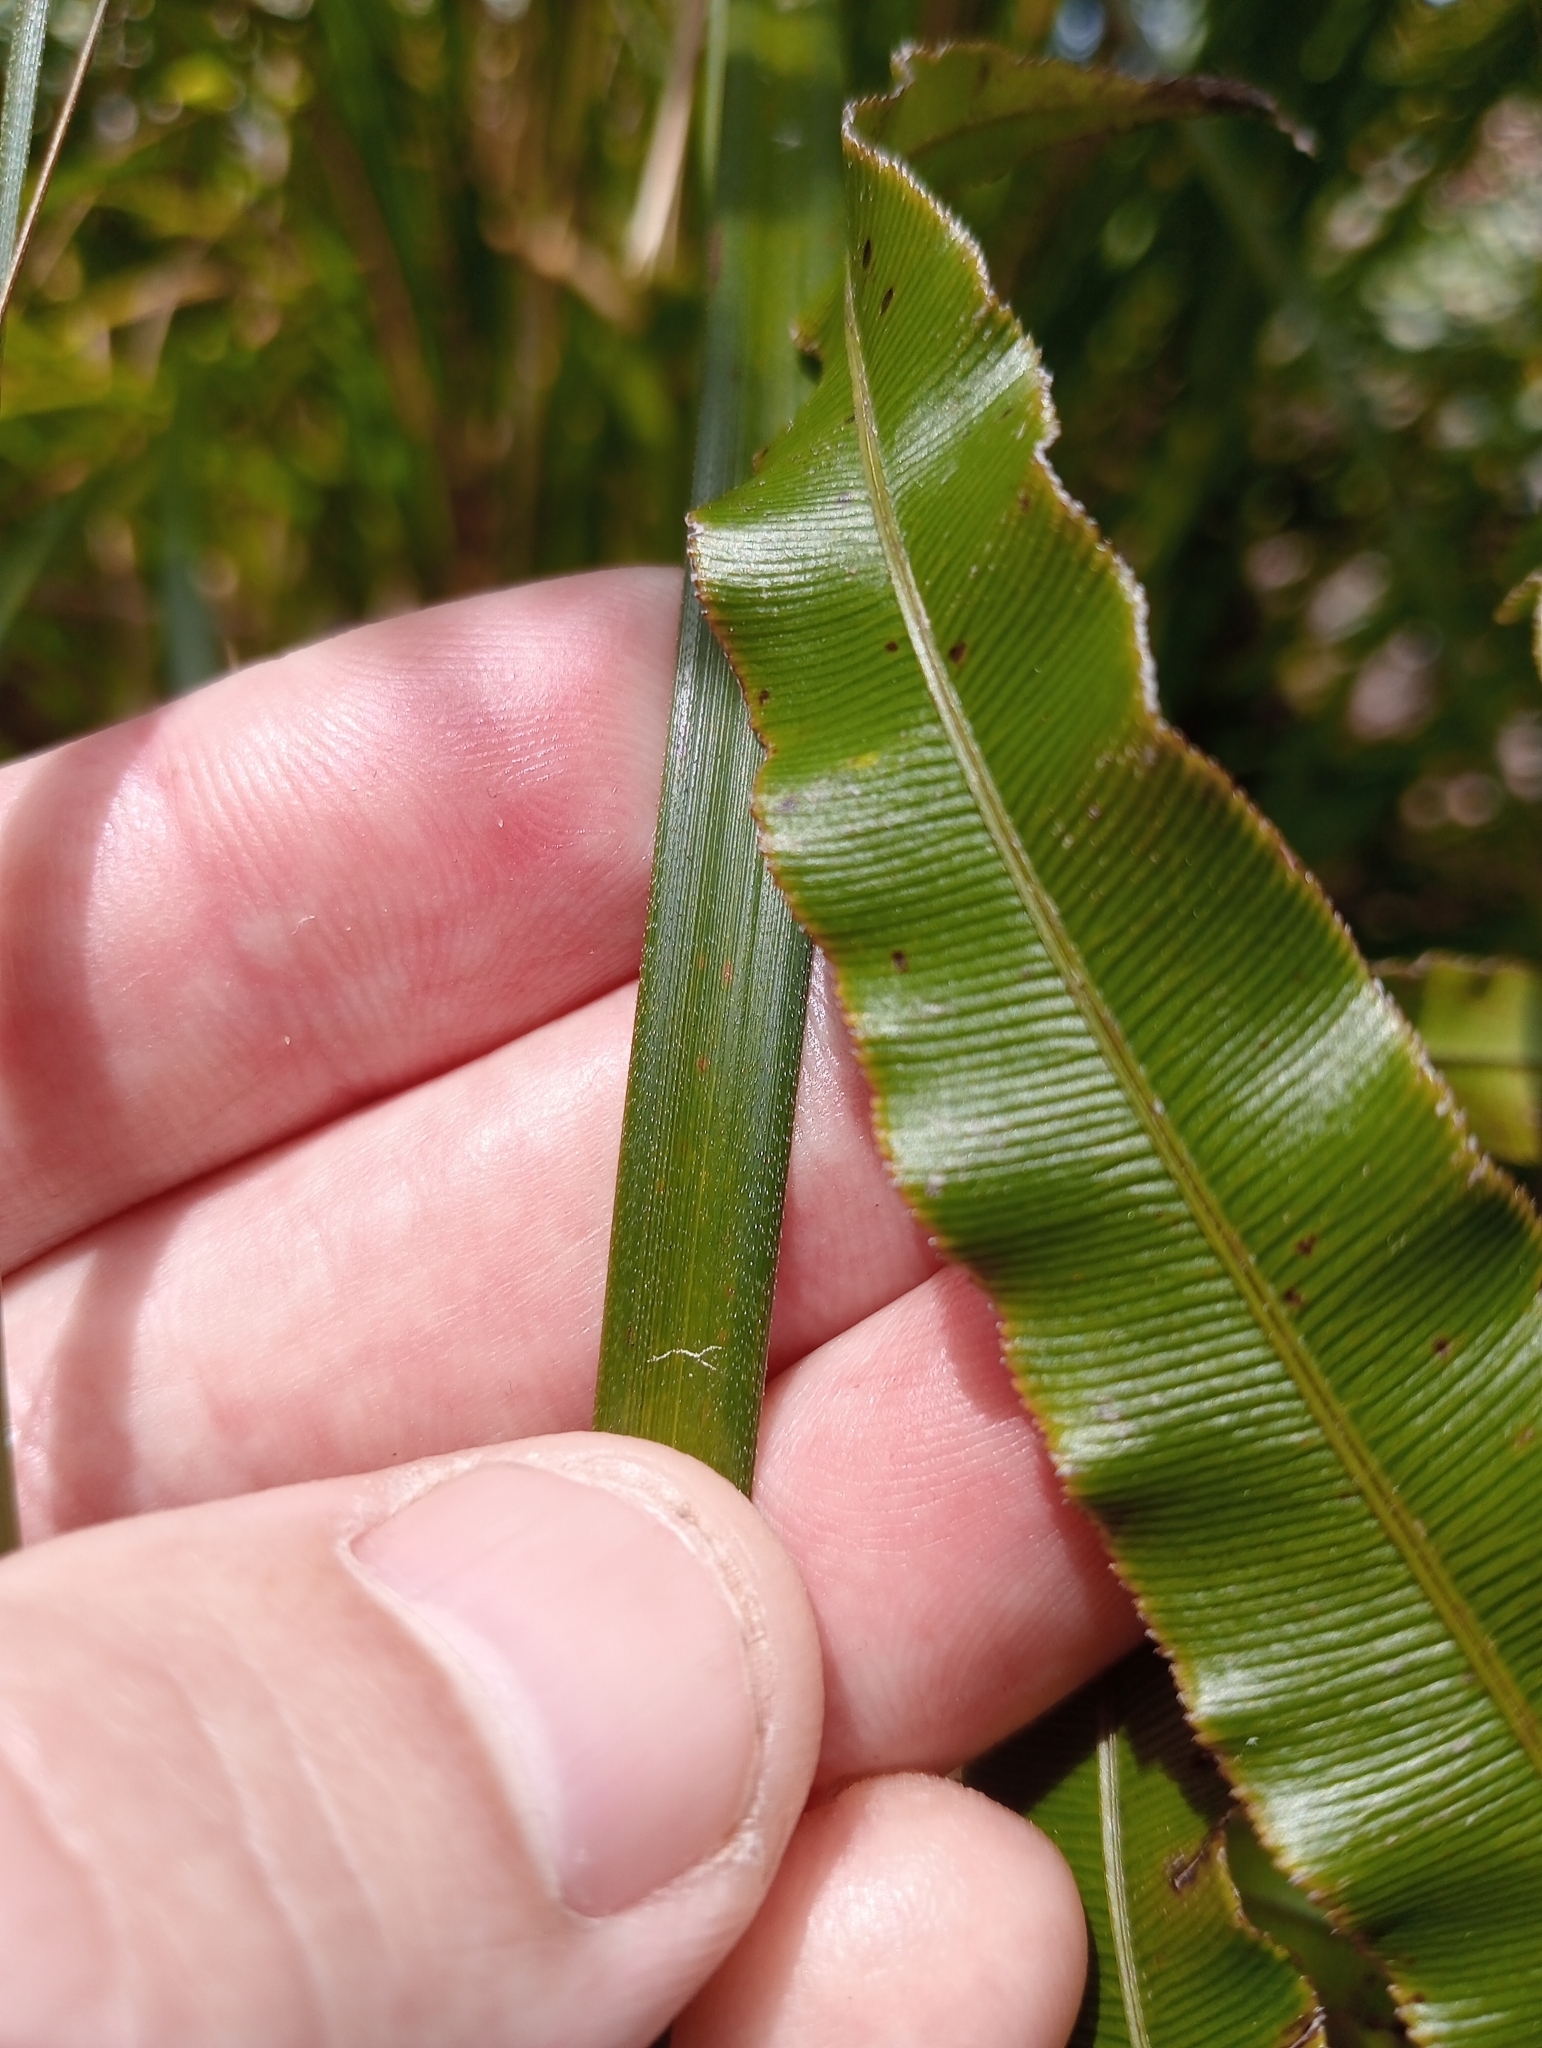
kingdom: Plantae
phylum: Tracheophyta
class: Liliopsida
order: Poales
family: Cyperaceae
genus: Gahnia
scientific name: Gahnia xanthocarpa
